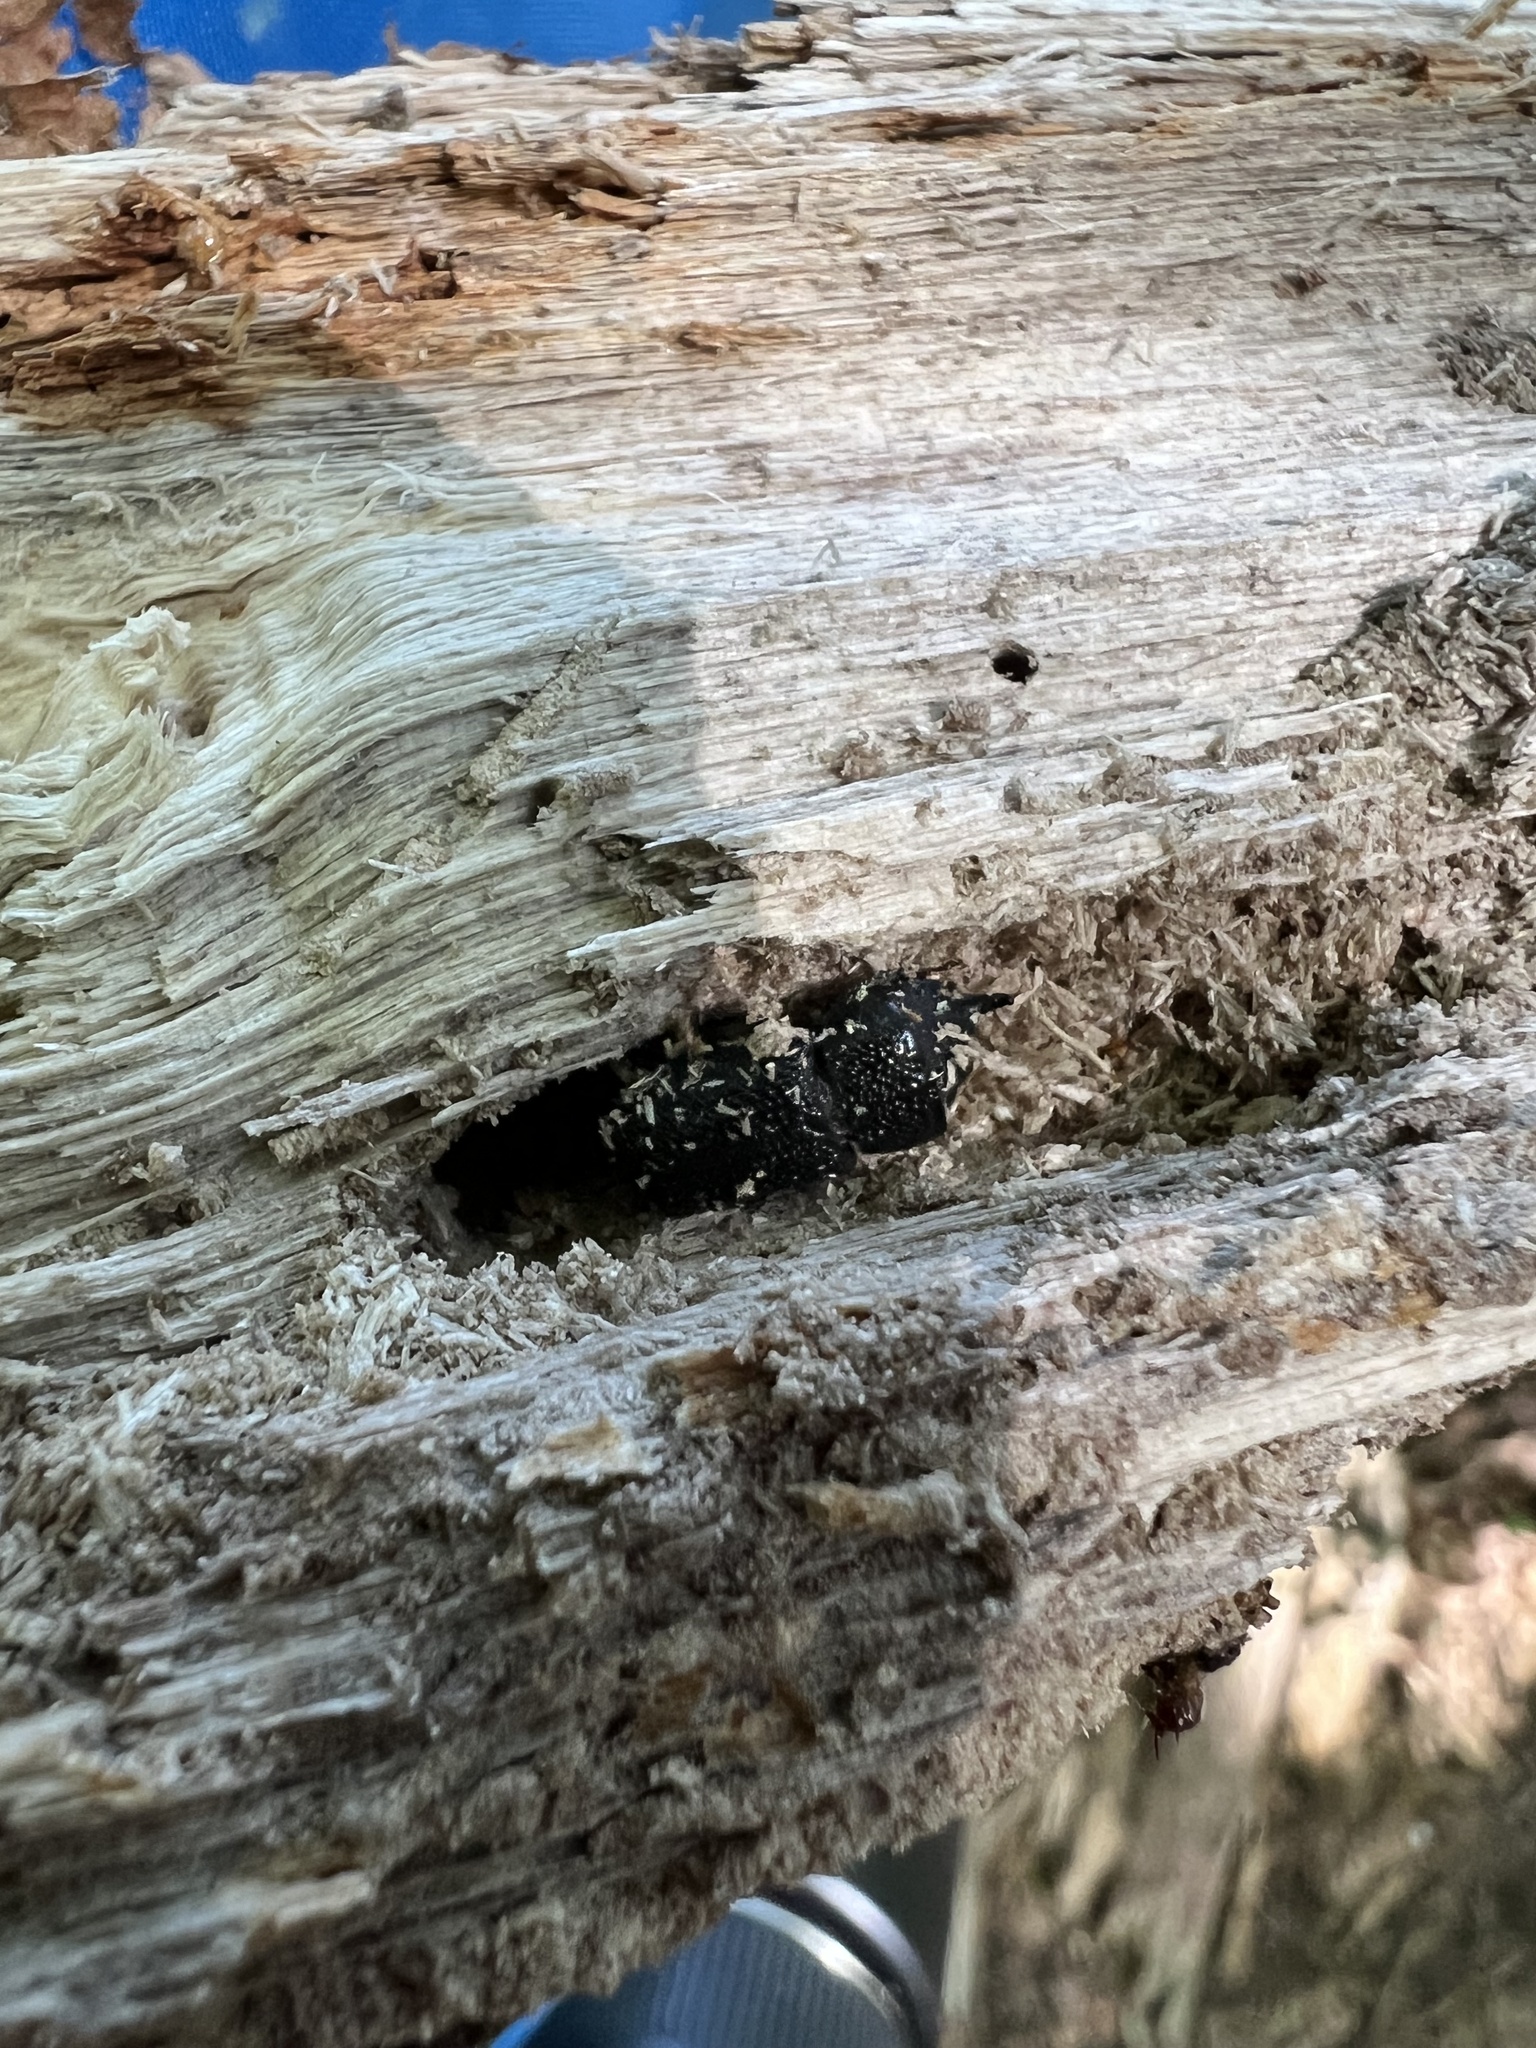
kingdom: Animalia
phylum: Arthropoda
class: Insecta
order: Coleoptera
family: Lucanidae
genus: Sinodendron
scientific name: Sinodendron rugosum
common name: Rugose stag beelte
